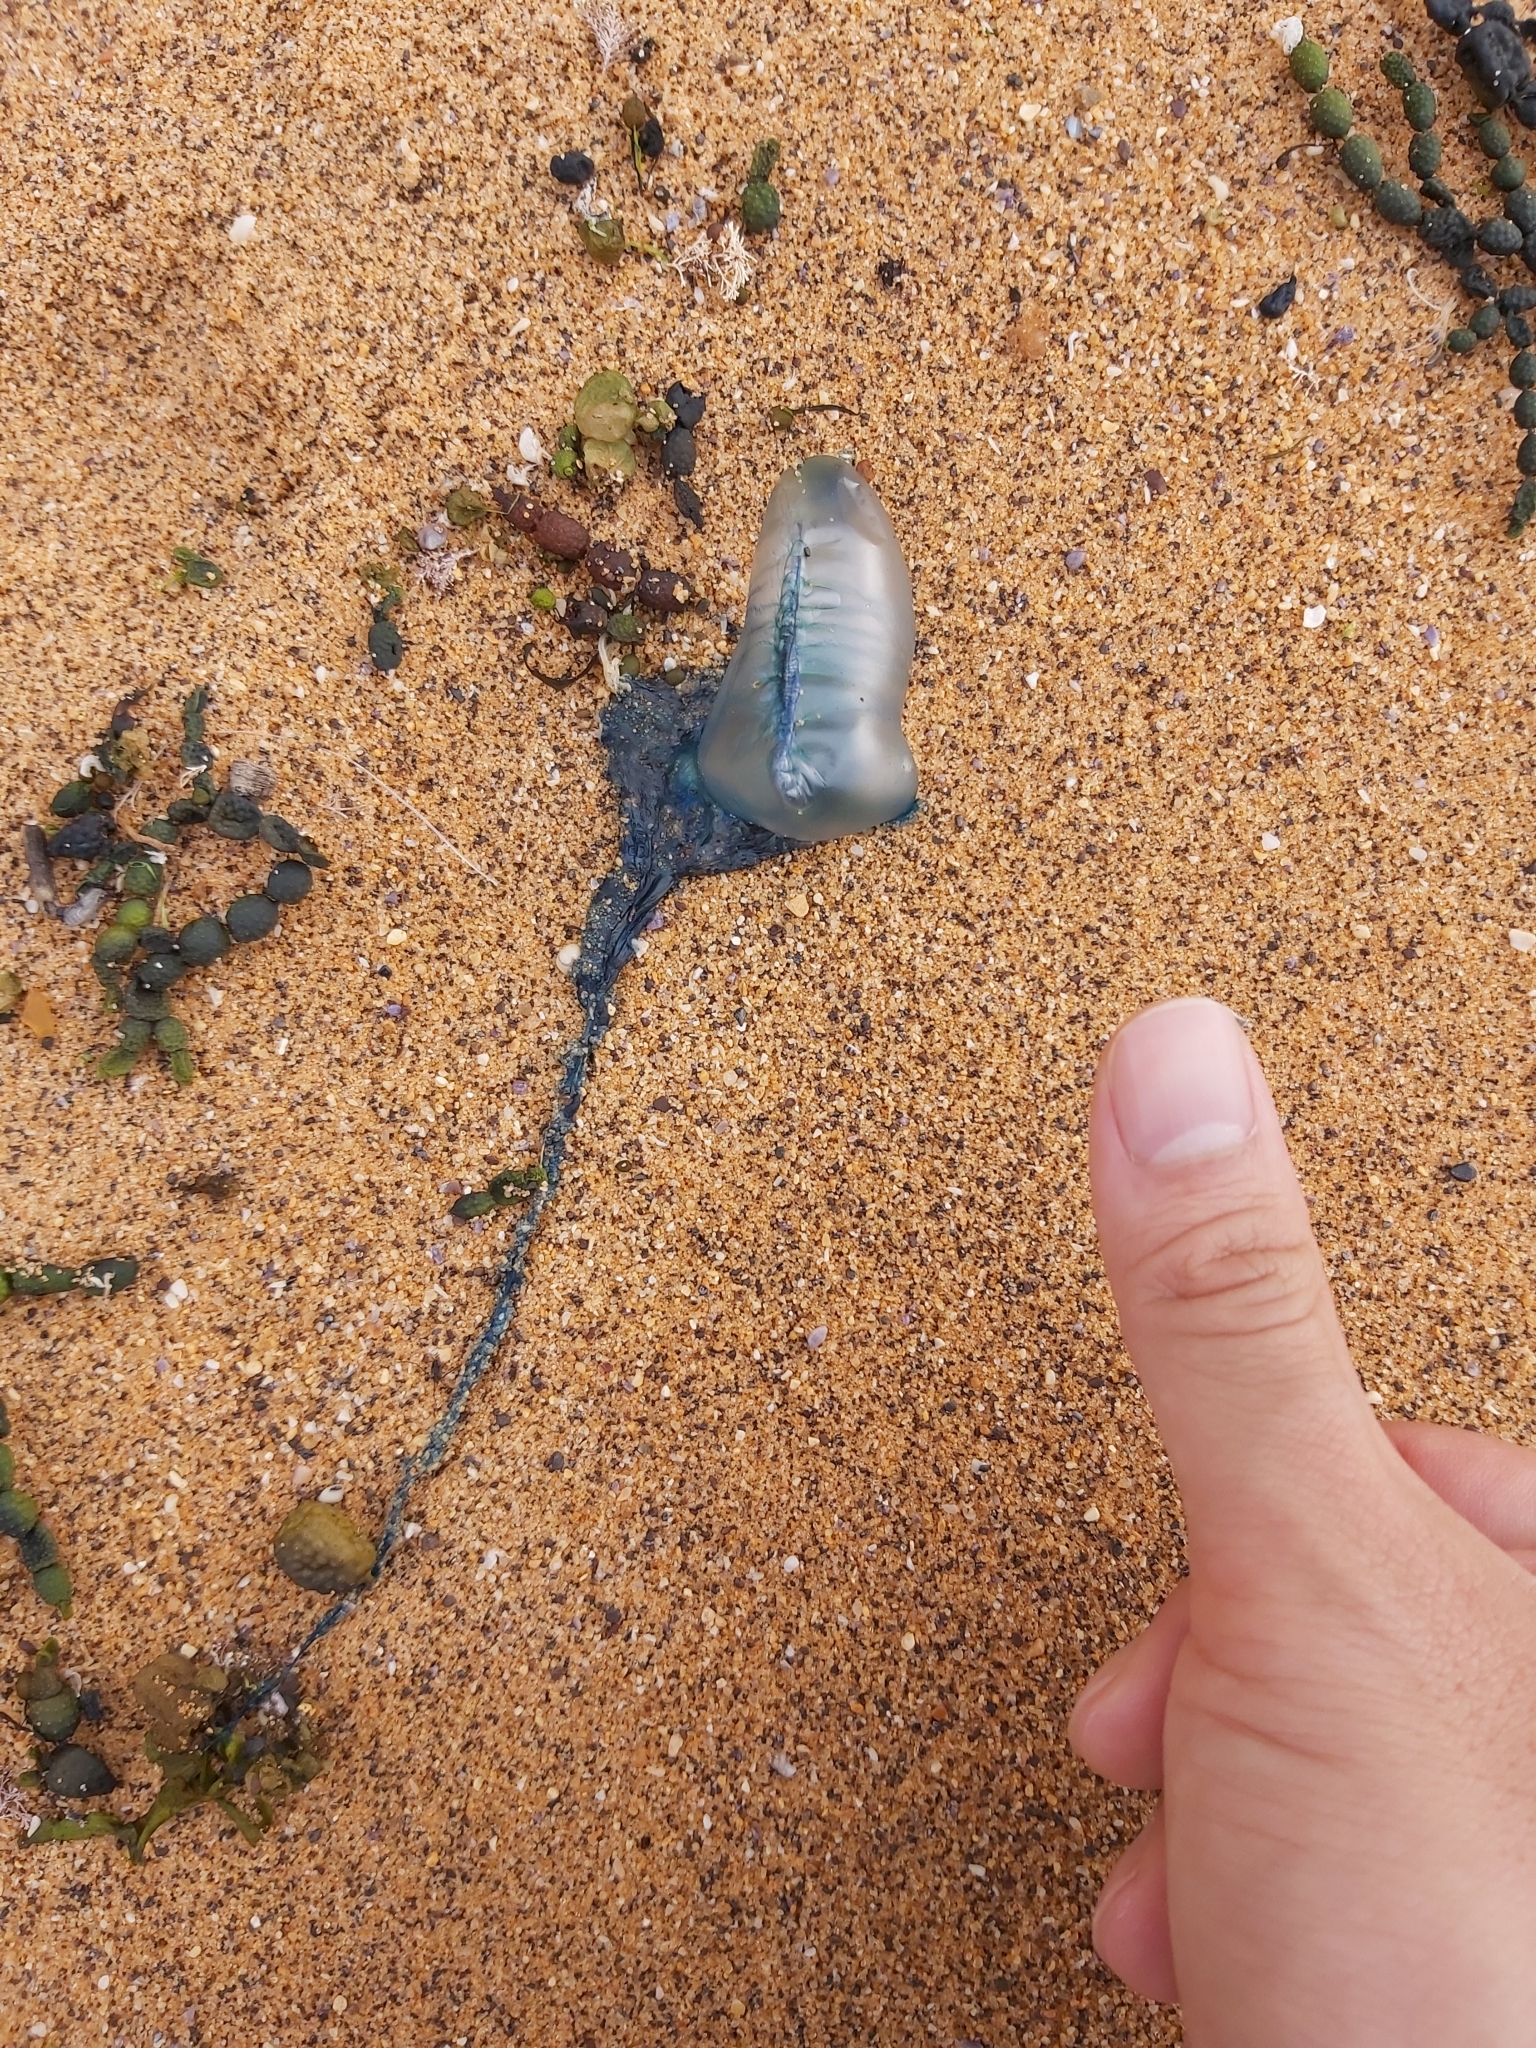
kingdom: Animalia
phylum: Cnidaria
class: Hydrozoa
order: Siphonophorae
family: Physaliidae
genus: Physalia
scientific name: Physalia physalis
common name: Portuguese man-of-war
